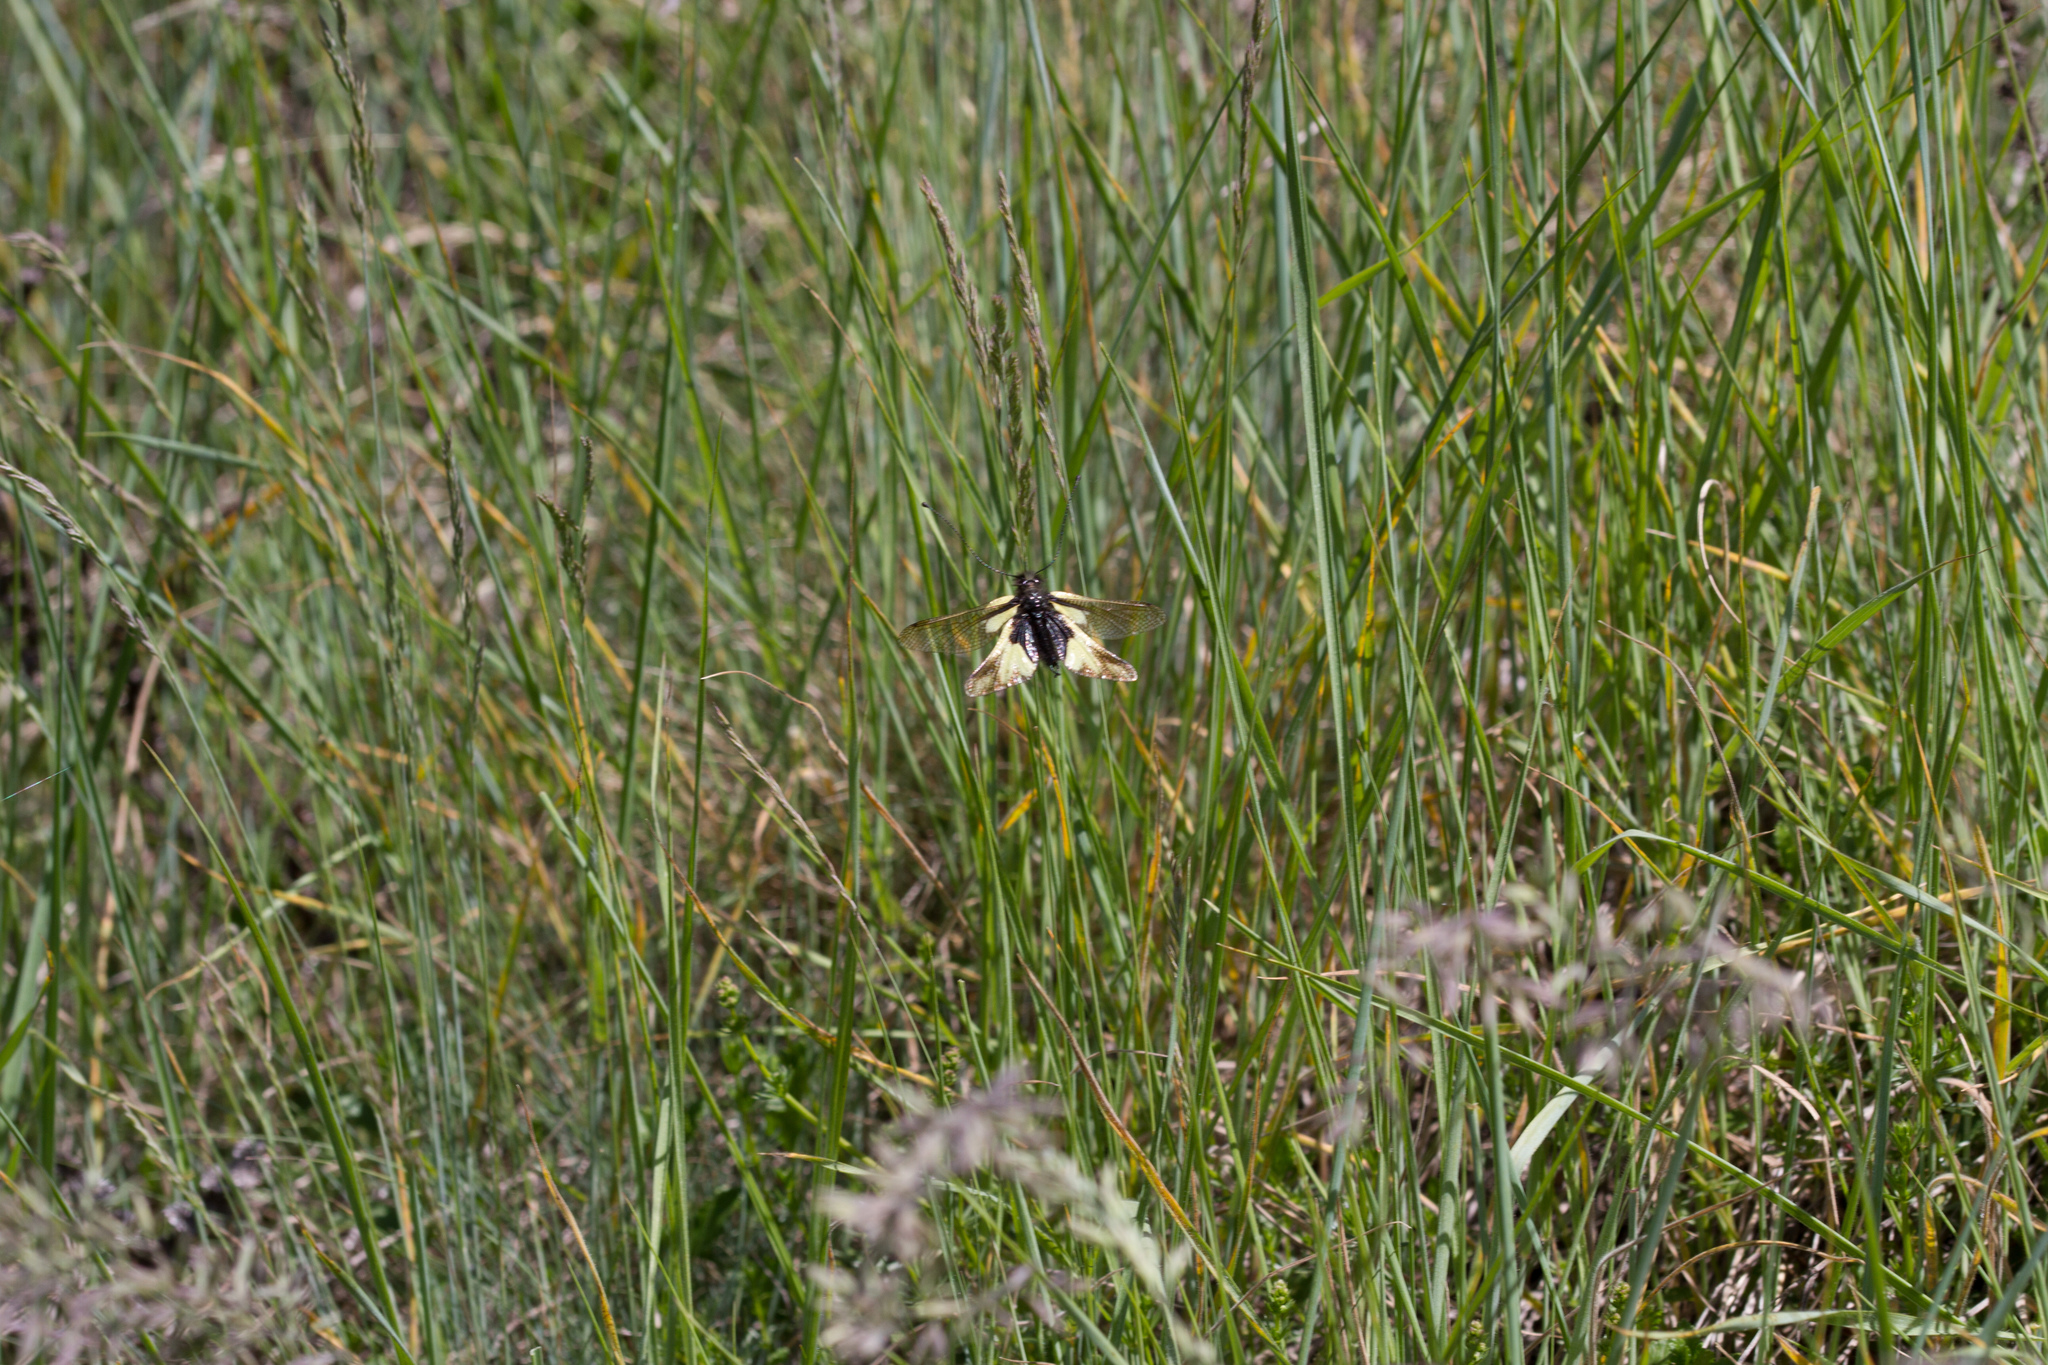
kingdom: Animalia
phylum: Arthropoda
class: Insecta
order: Neuroptera
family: Ascalaphidae
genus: Libelloides
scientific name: Libelloides coccajus
